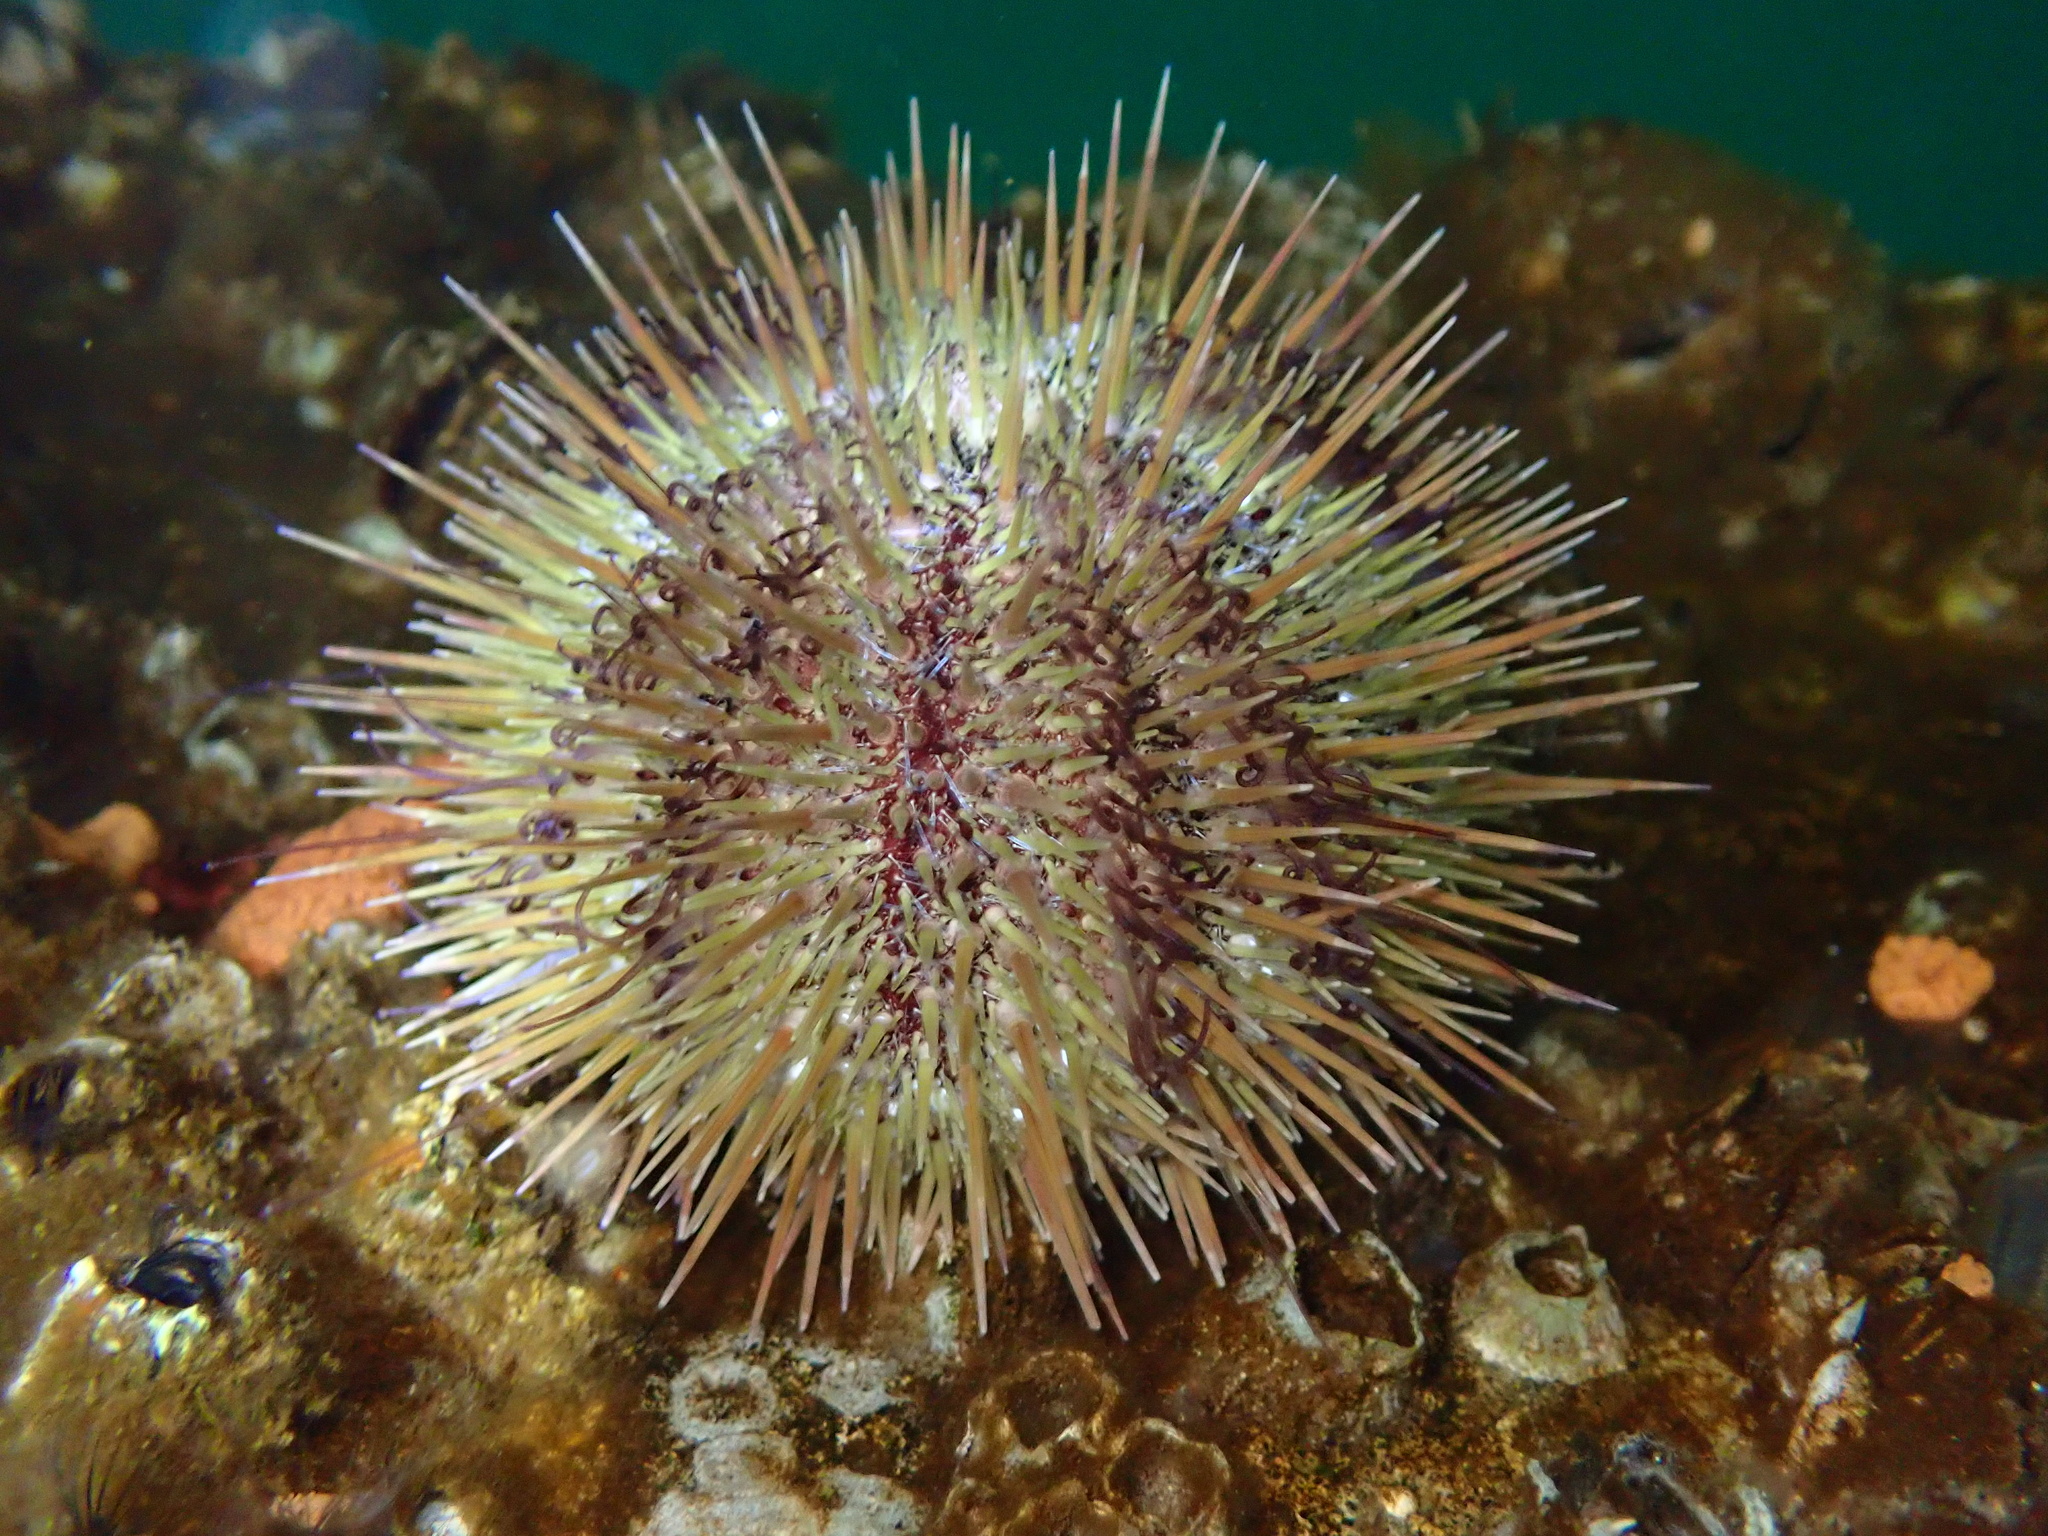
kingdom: Animalia
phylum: Echinodermata
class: Echinoidea
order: Camarodonta
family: Strongylocentrotidae
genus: Strongylocentrotus
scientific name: Strongylocentrotus droebachiensis
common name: Northern sea urchin
